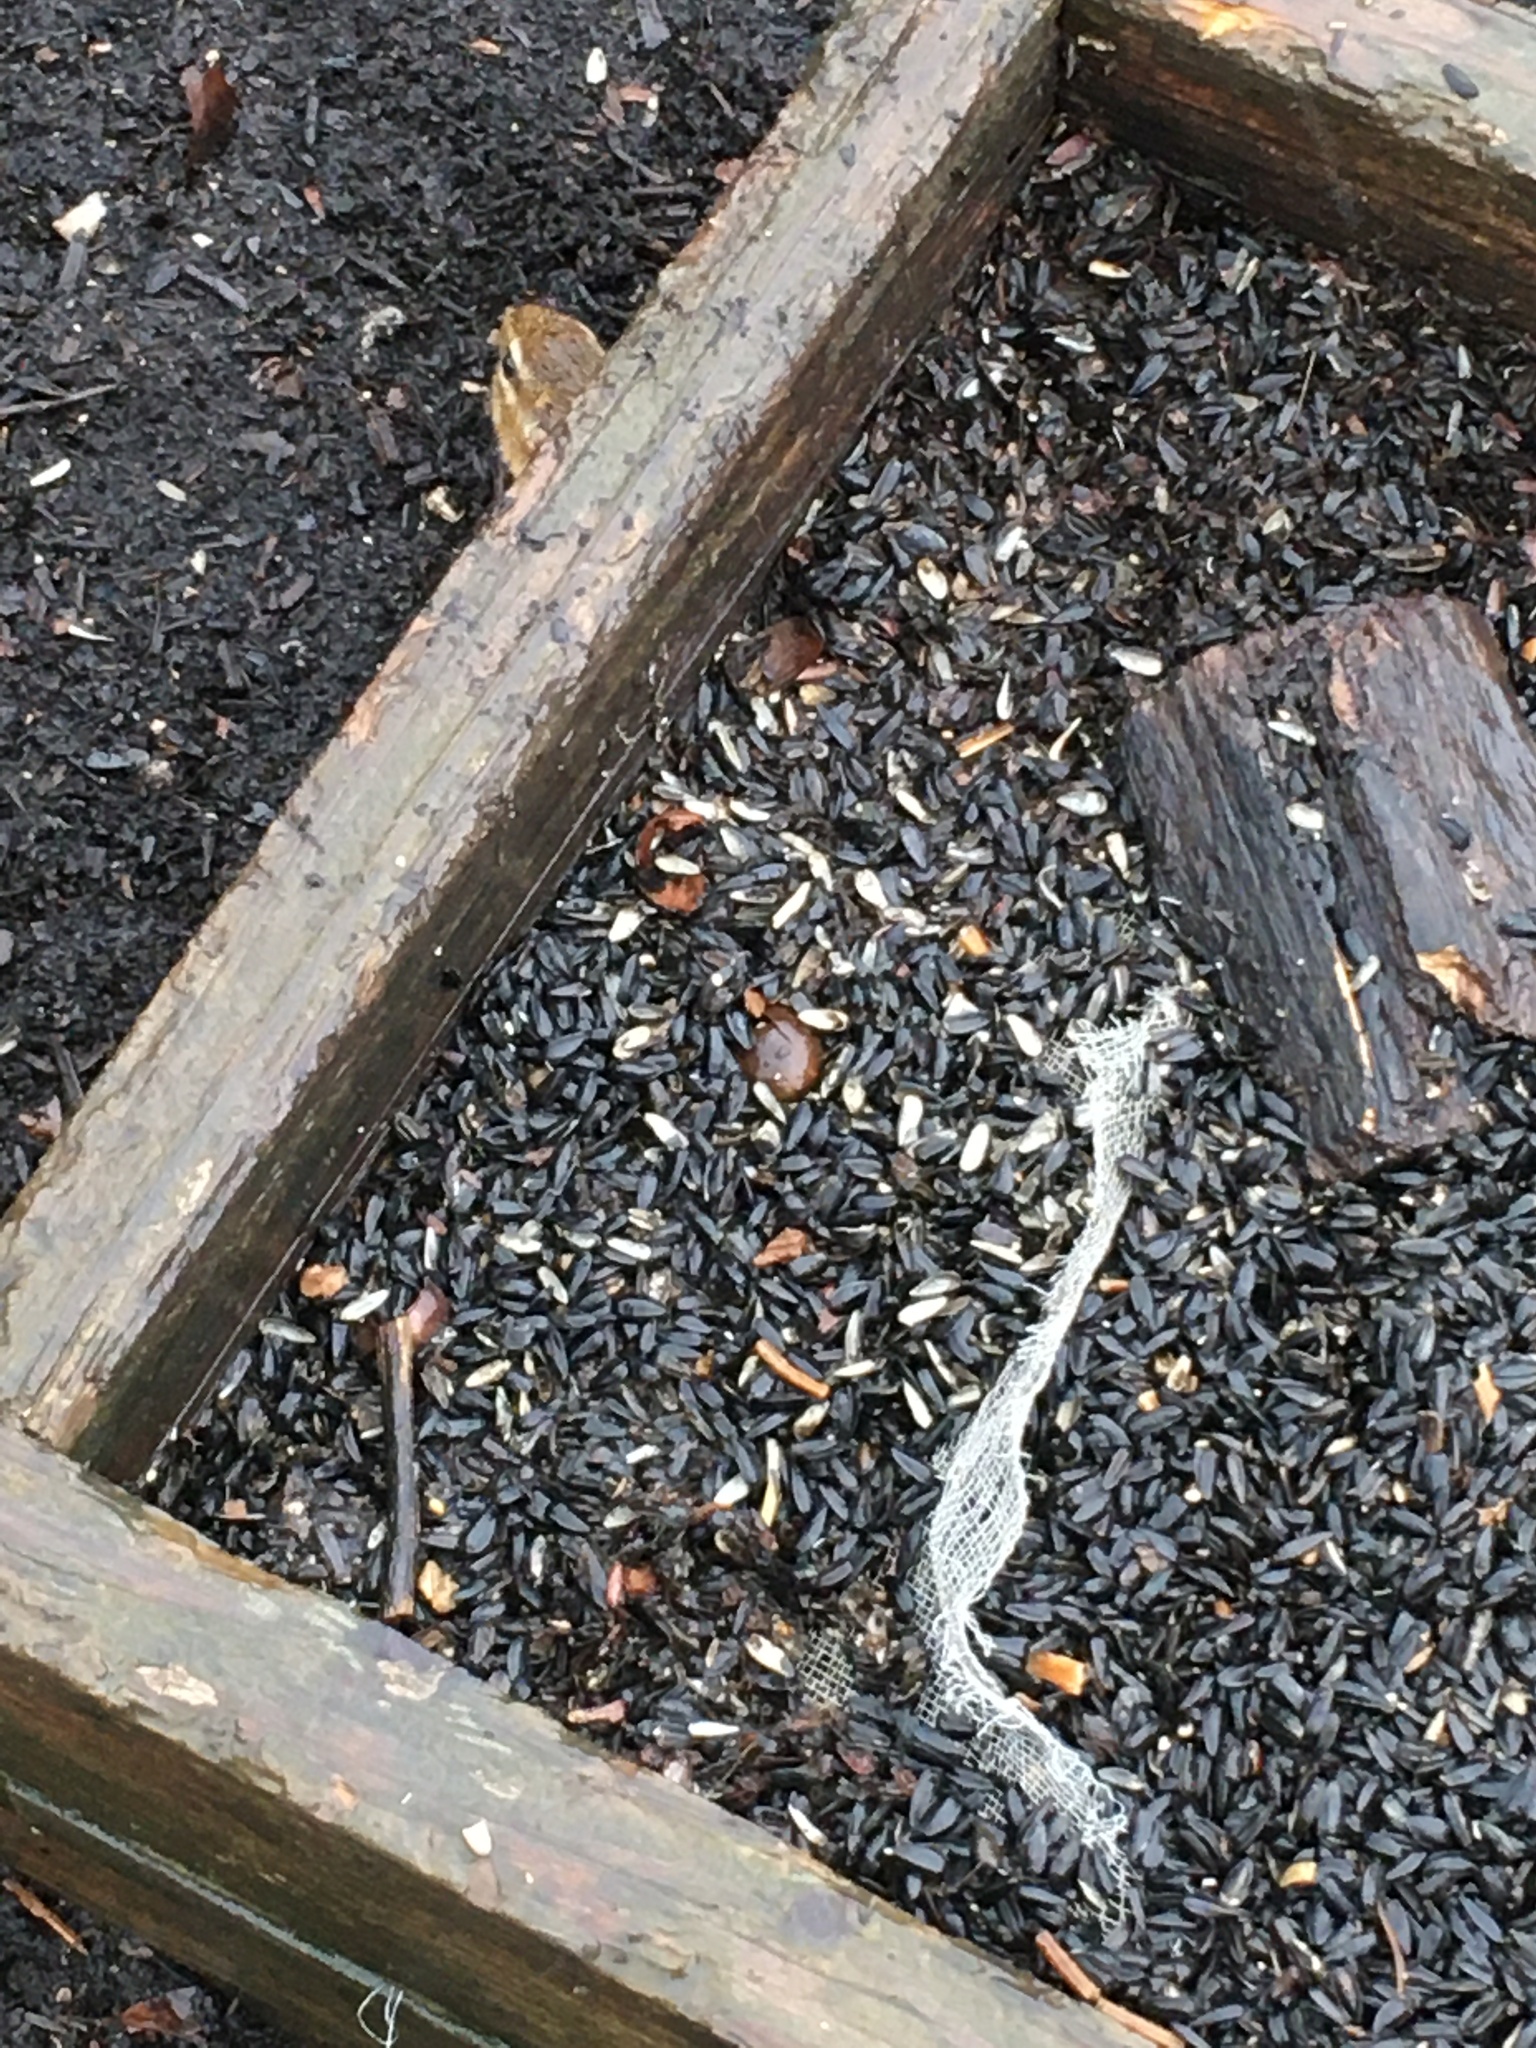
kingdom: Animalia
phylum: Chordata
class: Mammalia
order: Rodentia
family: Sciuridae
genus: Tamias
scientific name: Tamias striatus
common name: Eastern chipmunk
